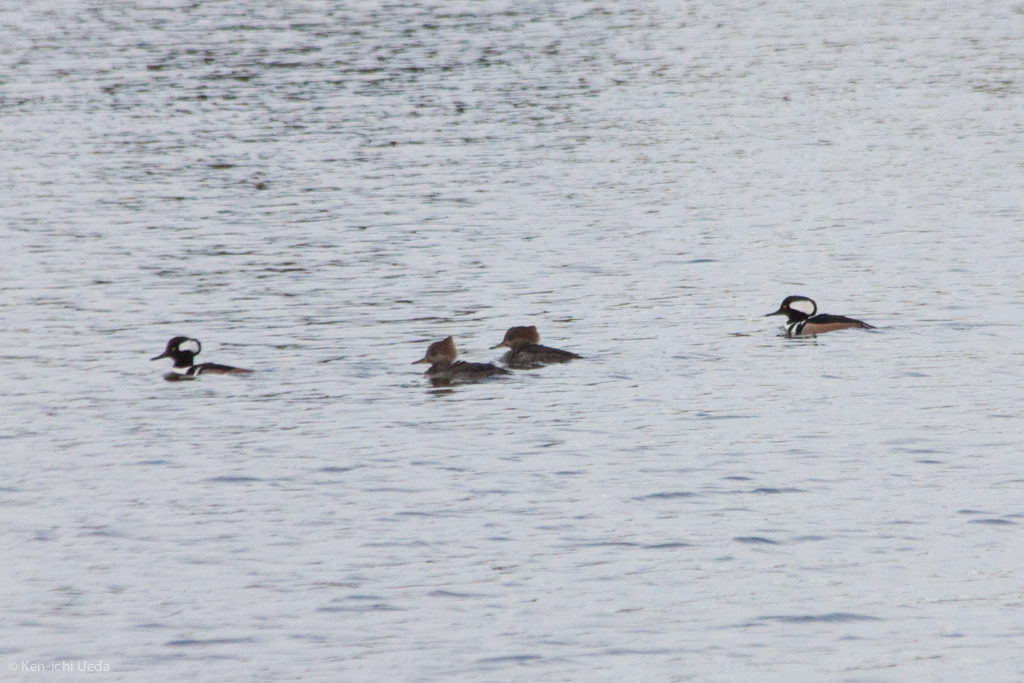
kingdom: Animalia
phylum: Chordata
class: Aves
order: Anseriformes
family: Anatidae
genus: Lophodytes
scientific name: Lophodytes cucullatus
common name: Hooded merganser
